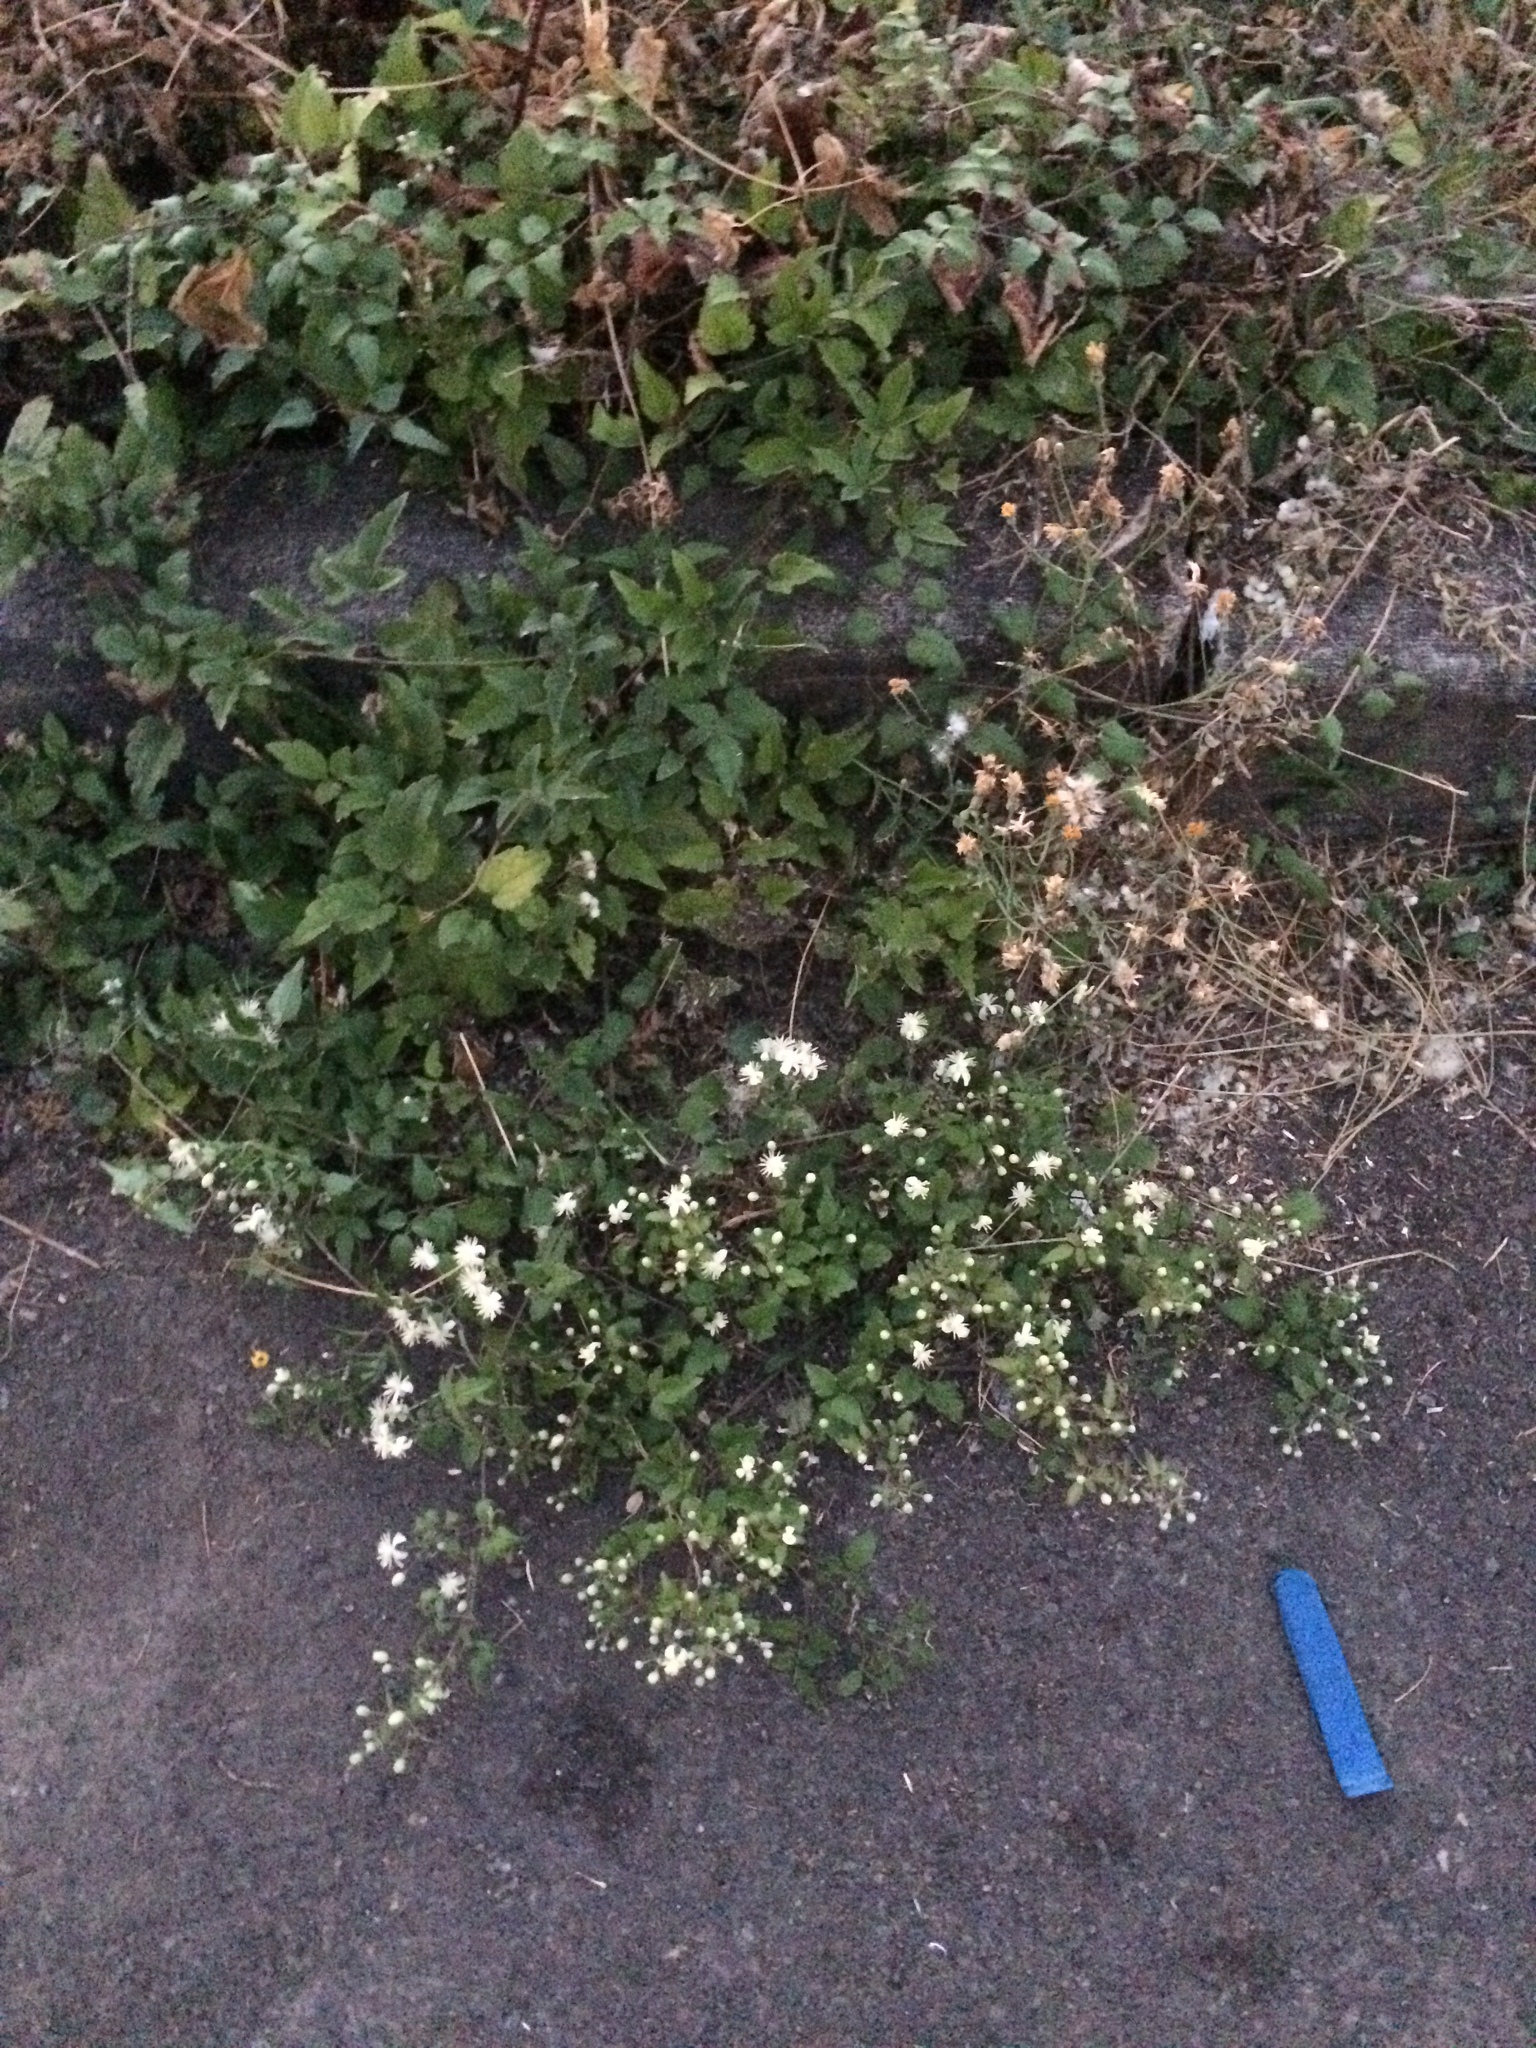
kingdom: Plantae
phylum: Tracheophyta
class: Magnoliopsida
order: Ranunculales
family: Ranunculaceae
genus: Clematis
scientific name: Clematis vitalba
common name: Evergreen clematis
